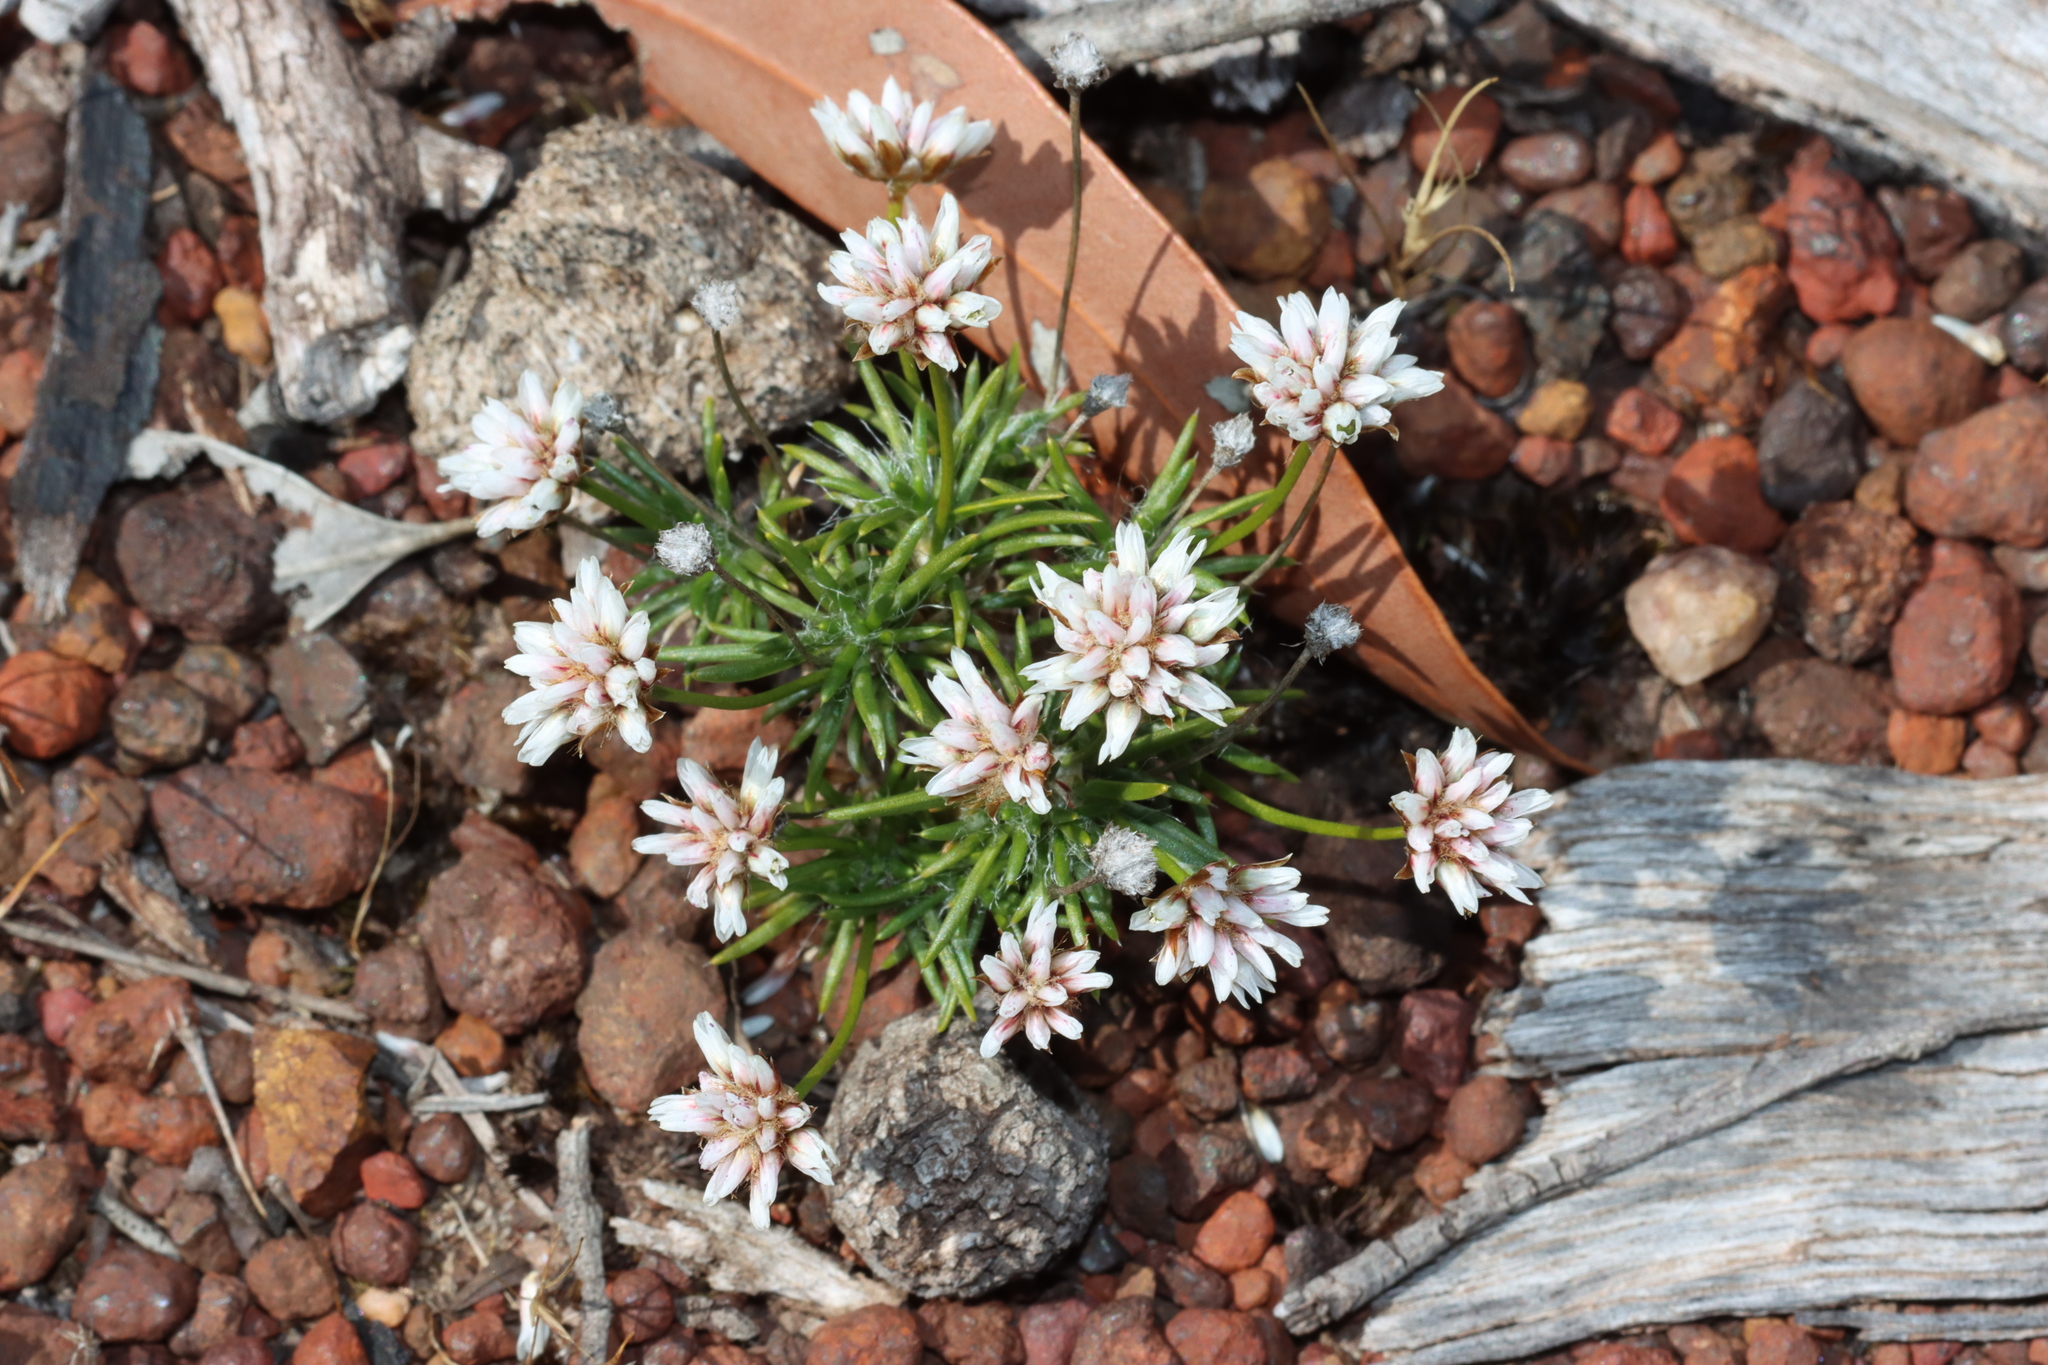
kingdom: Plantae
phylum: Tracheophyta
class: Liliopsida
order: Asparagales
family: Asparagaceae
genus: Laxmannia
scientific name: Laxmannia squarrosa
